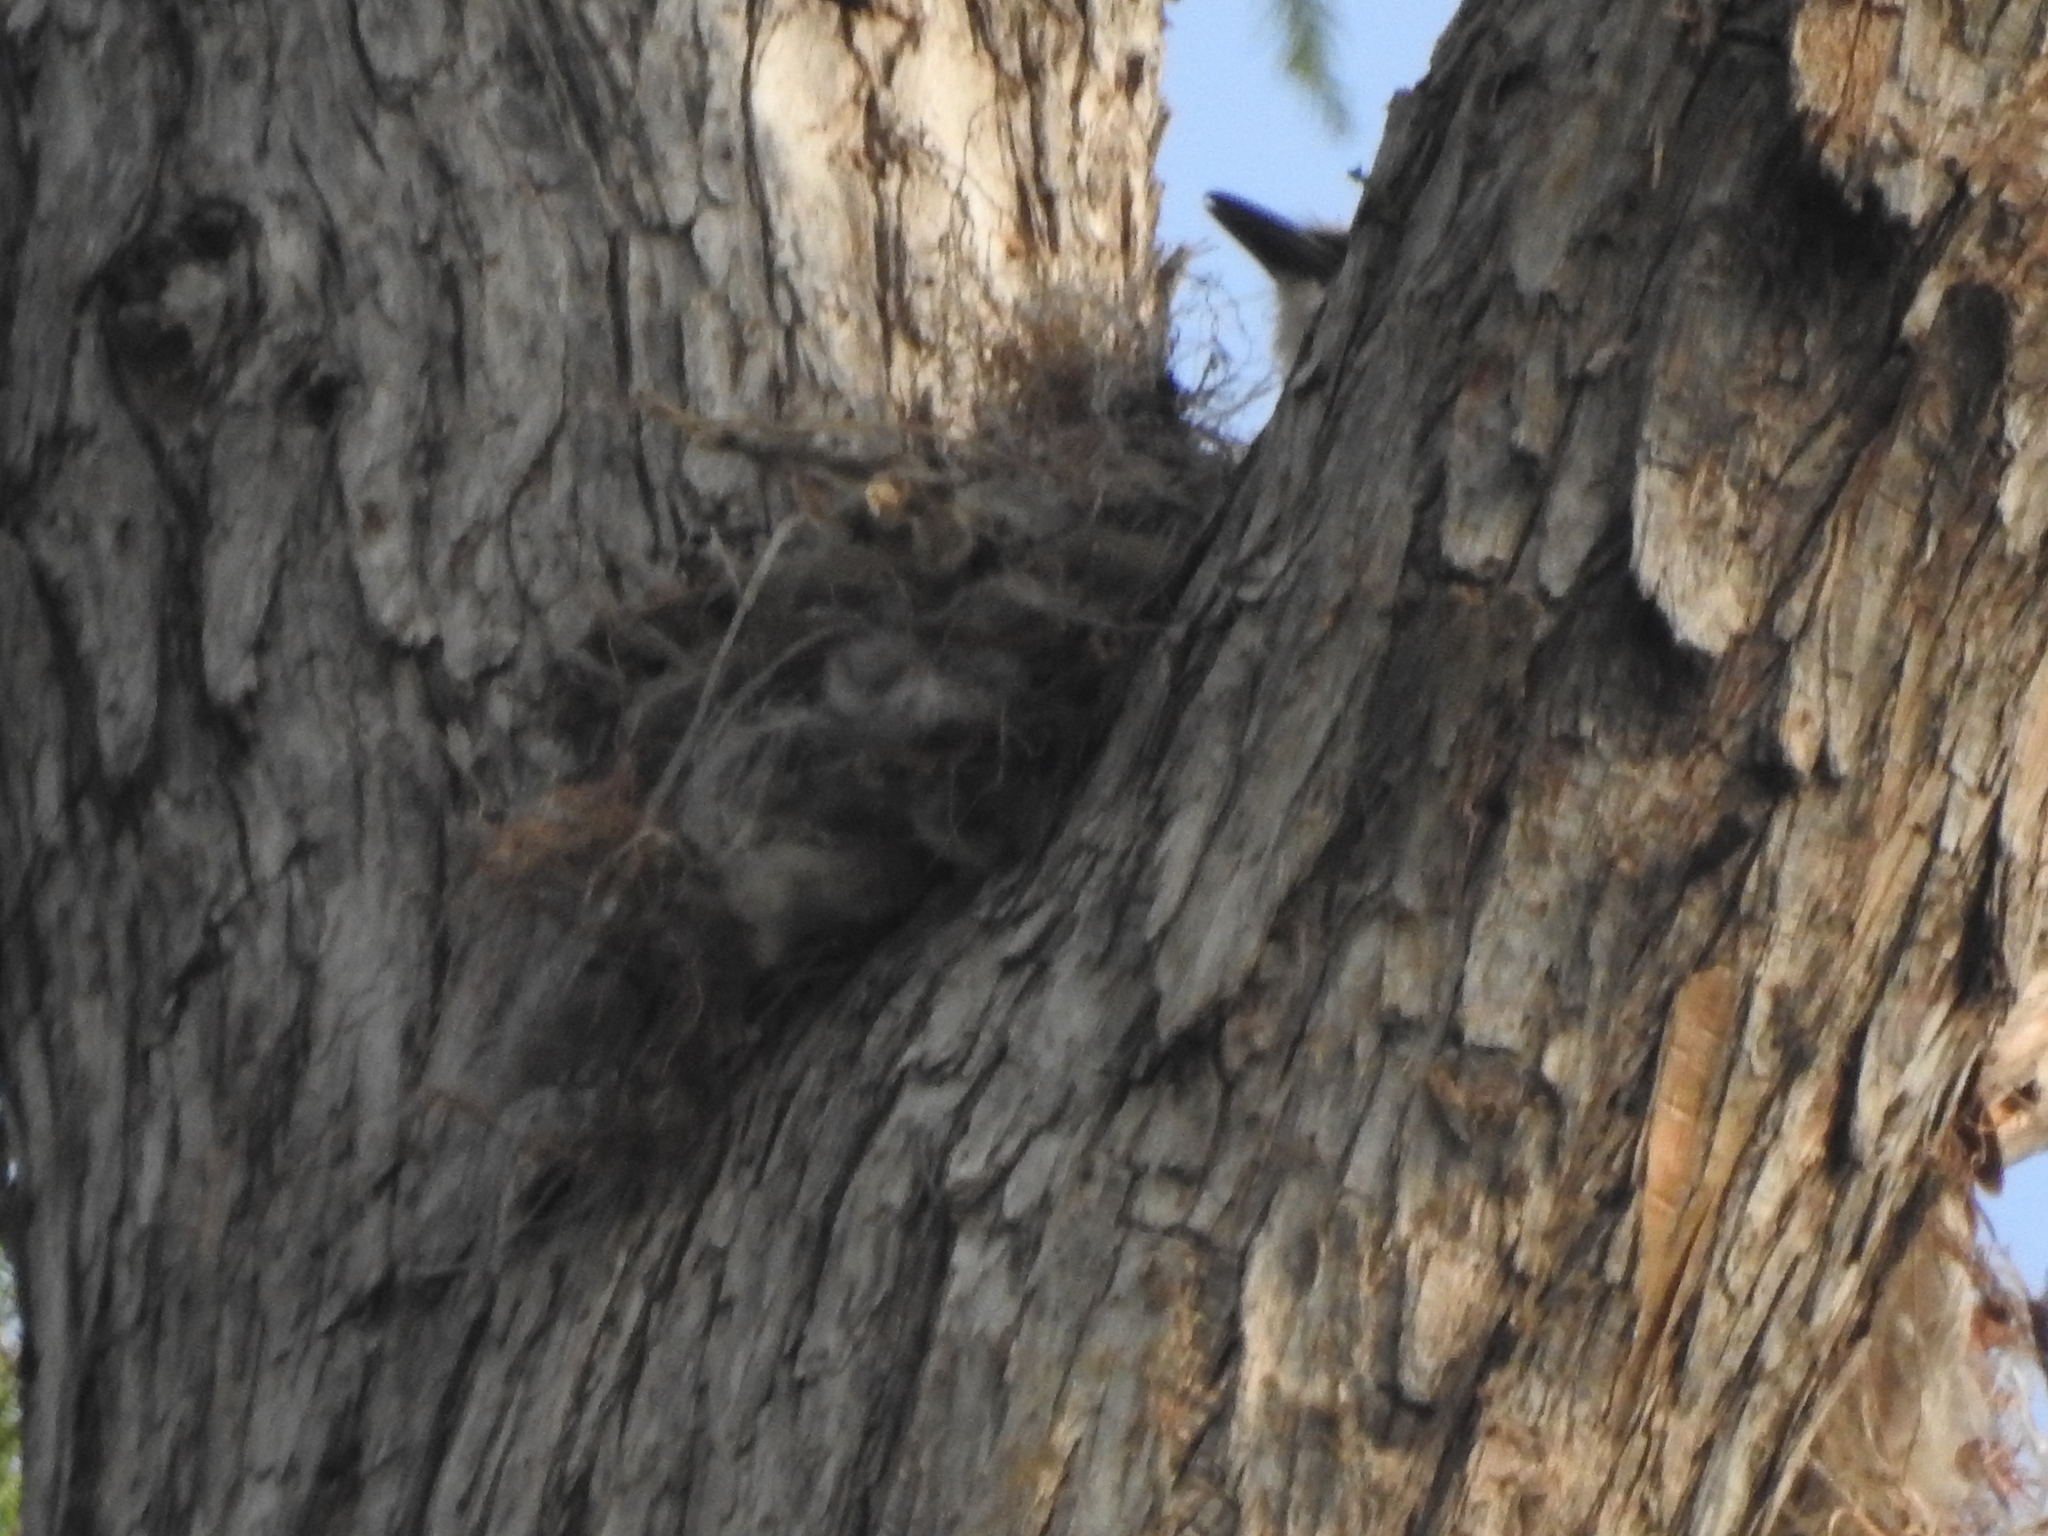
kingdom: Animalia
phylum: Chordata
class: Aves
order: Passeriformes
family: Tyrannidae
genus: Pitangus
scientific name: Pitangus sulphuratus
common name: Great kiskadee
